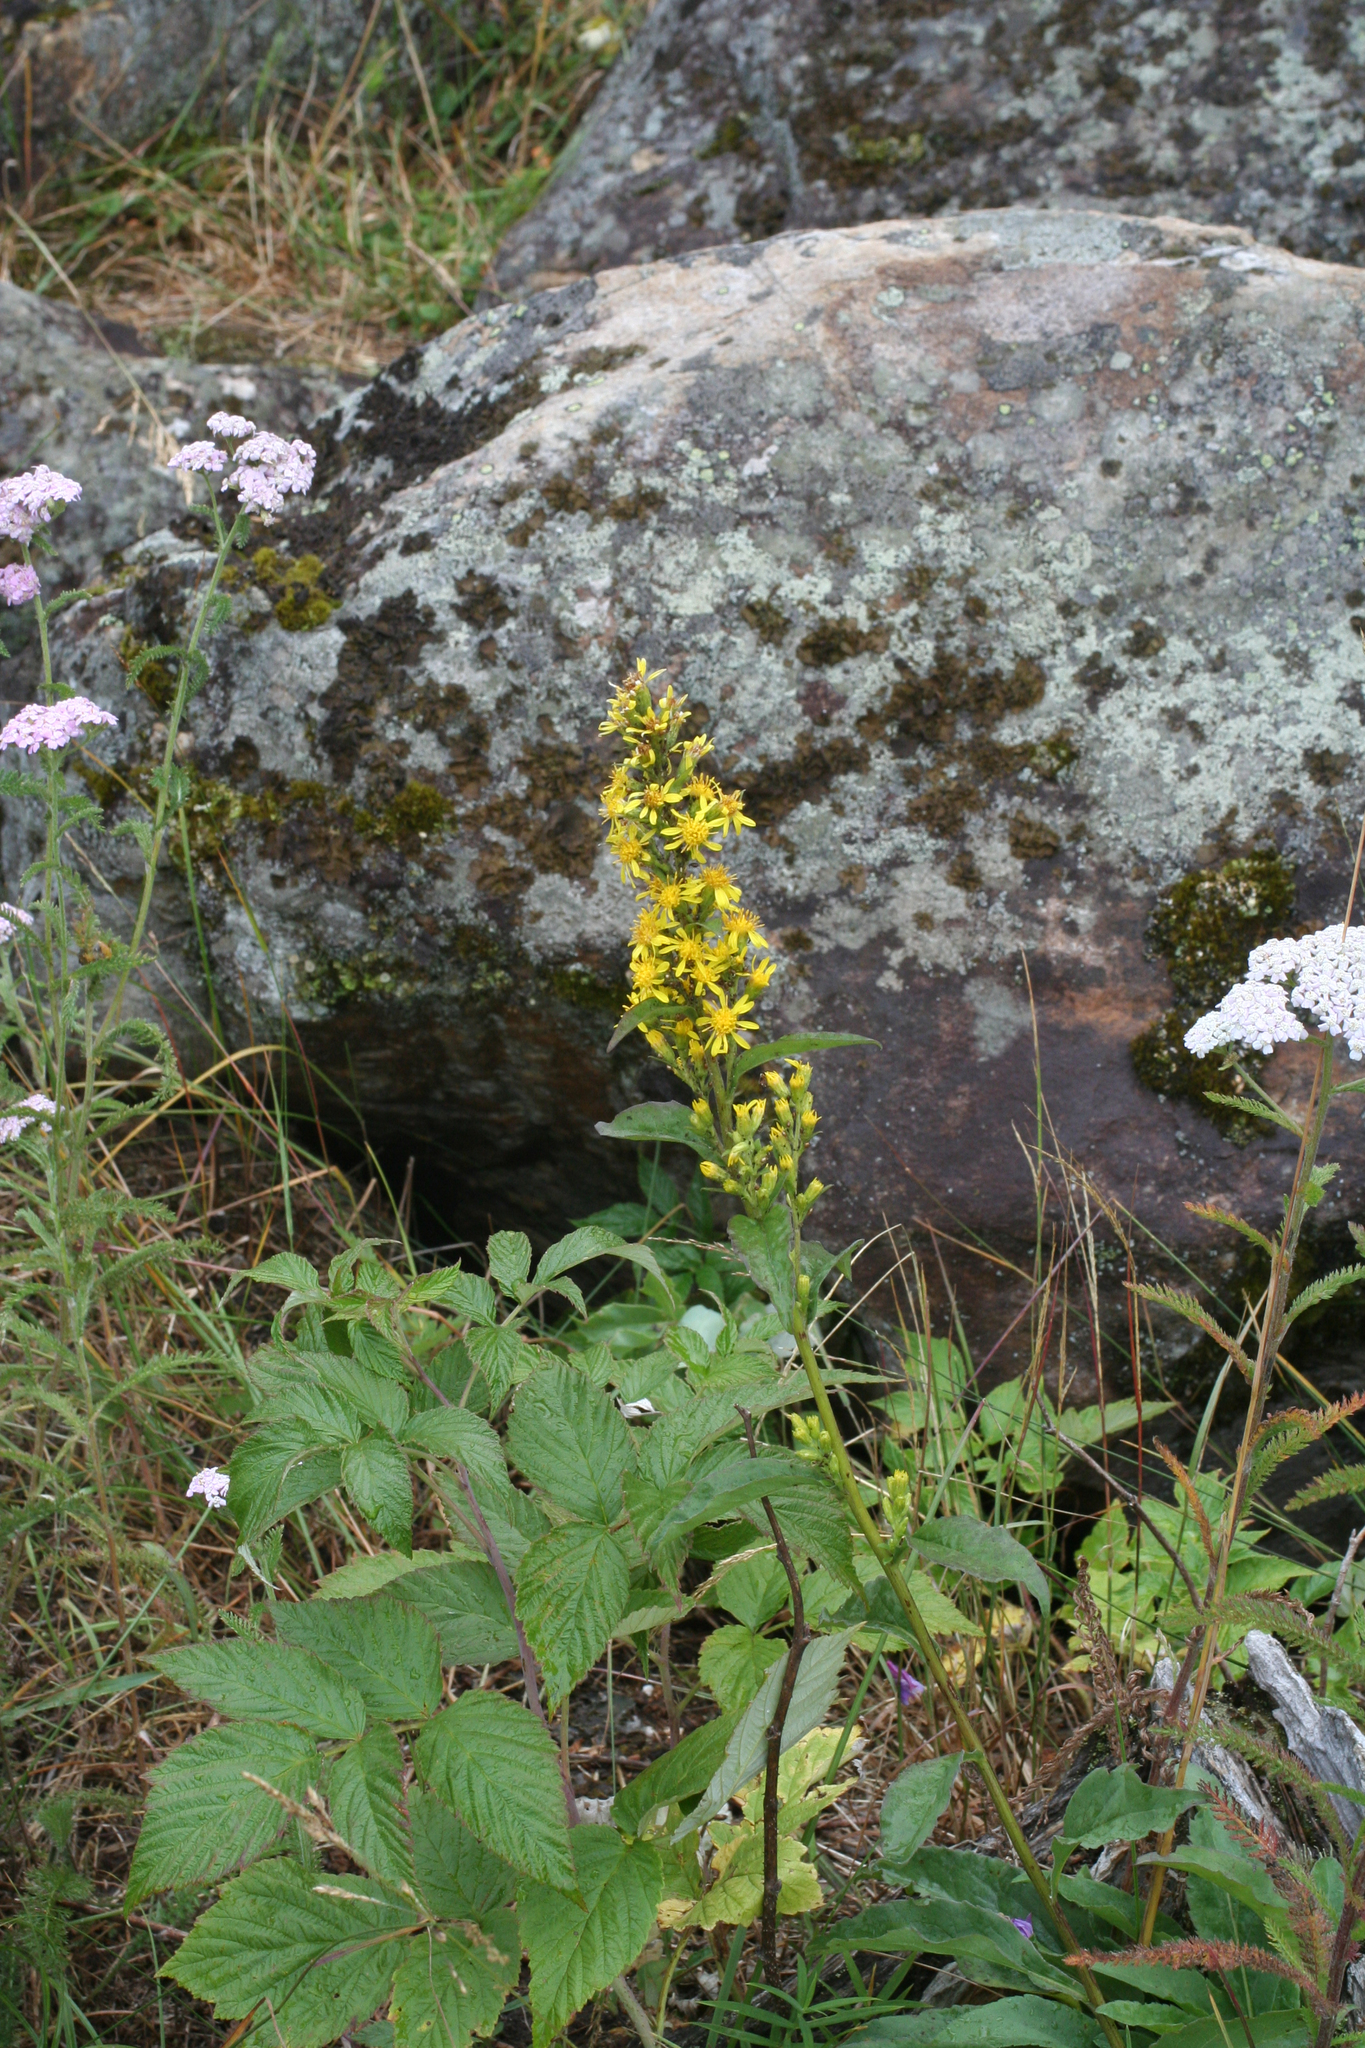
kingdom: Plantae
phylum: Tracheophyta
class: Magnoliopsida
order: Asterales
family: Asteraceae
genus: Solidago
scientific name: Solidago virgaurea
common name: Goldenrod
